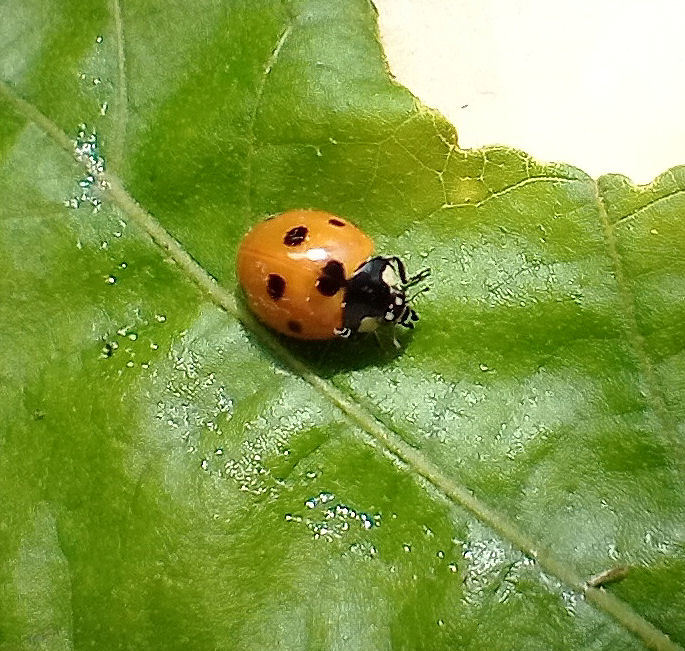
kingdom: Animalia
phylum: Arthropoda
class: Insecta
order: Coleoptera
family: Coccinellidae
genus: Coccinella
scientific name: Coccinella septempunctata
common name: Sevenspotted lady beetle
